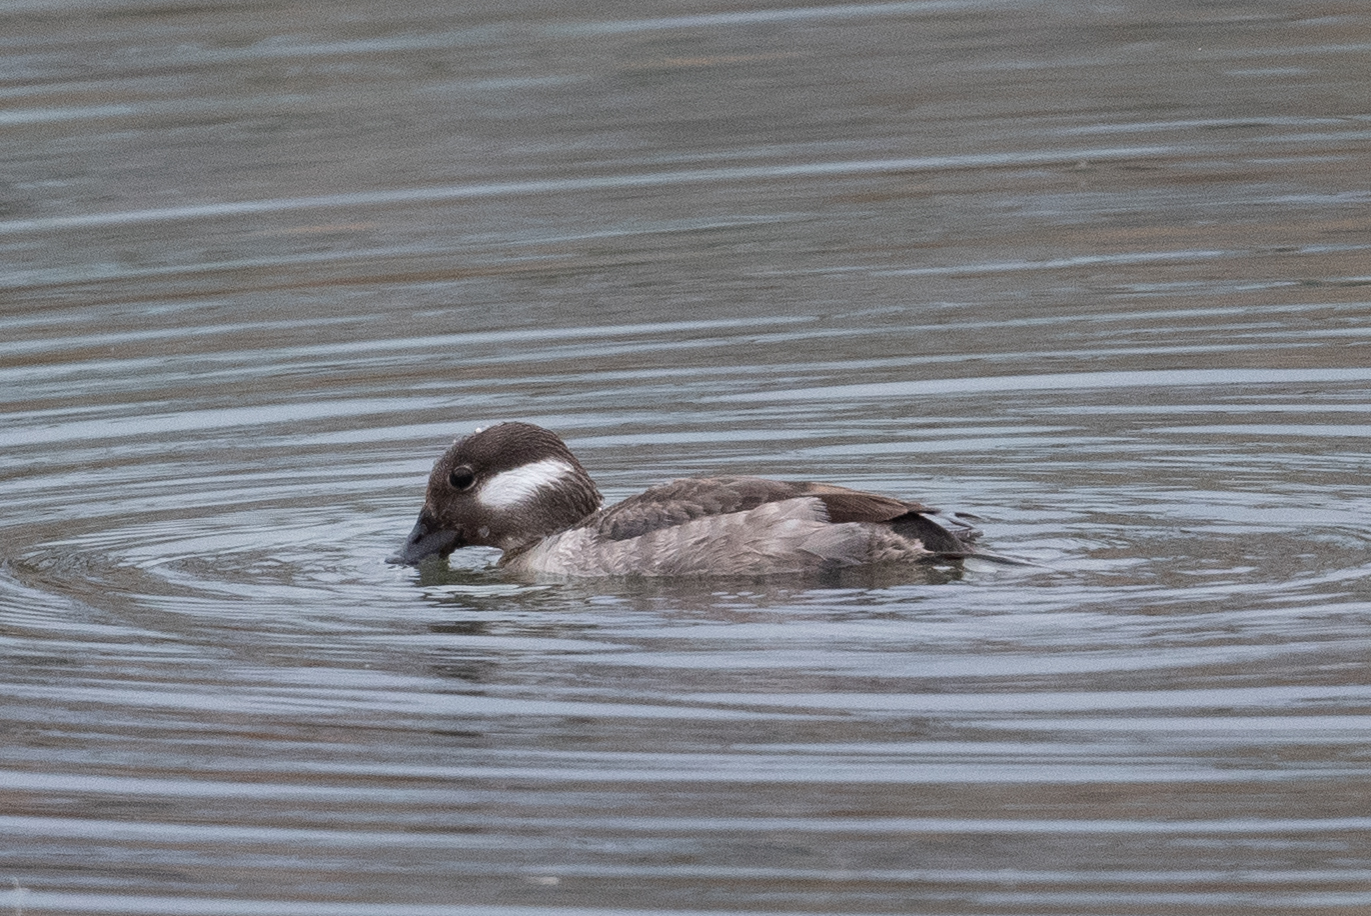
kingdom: Animalia
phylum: Chordata
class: Aves
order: Anseriformes
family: Anatidae
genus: Bucephala
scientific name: Bucephala albeola
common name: Bufflehead
